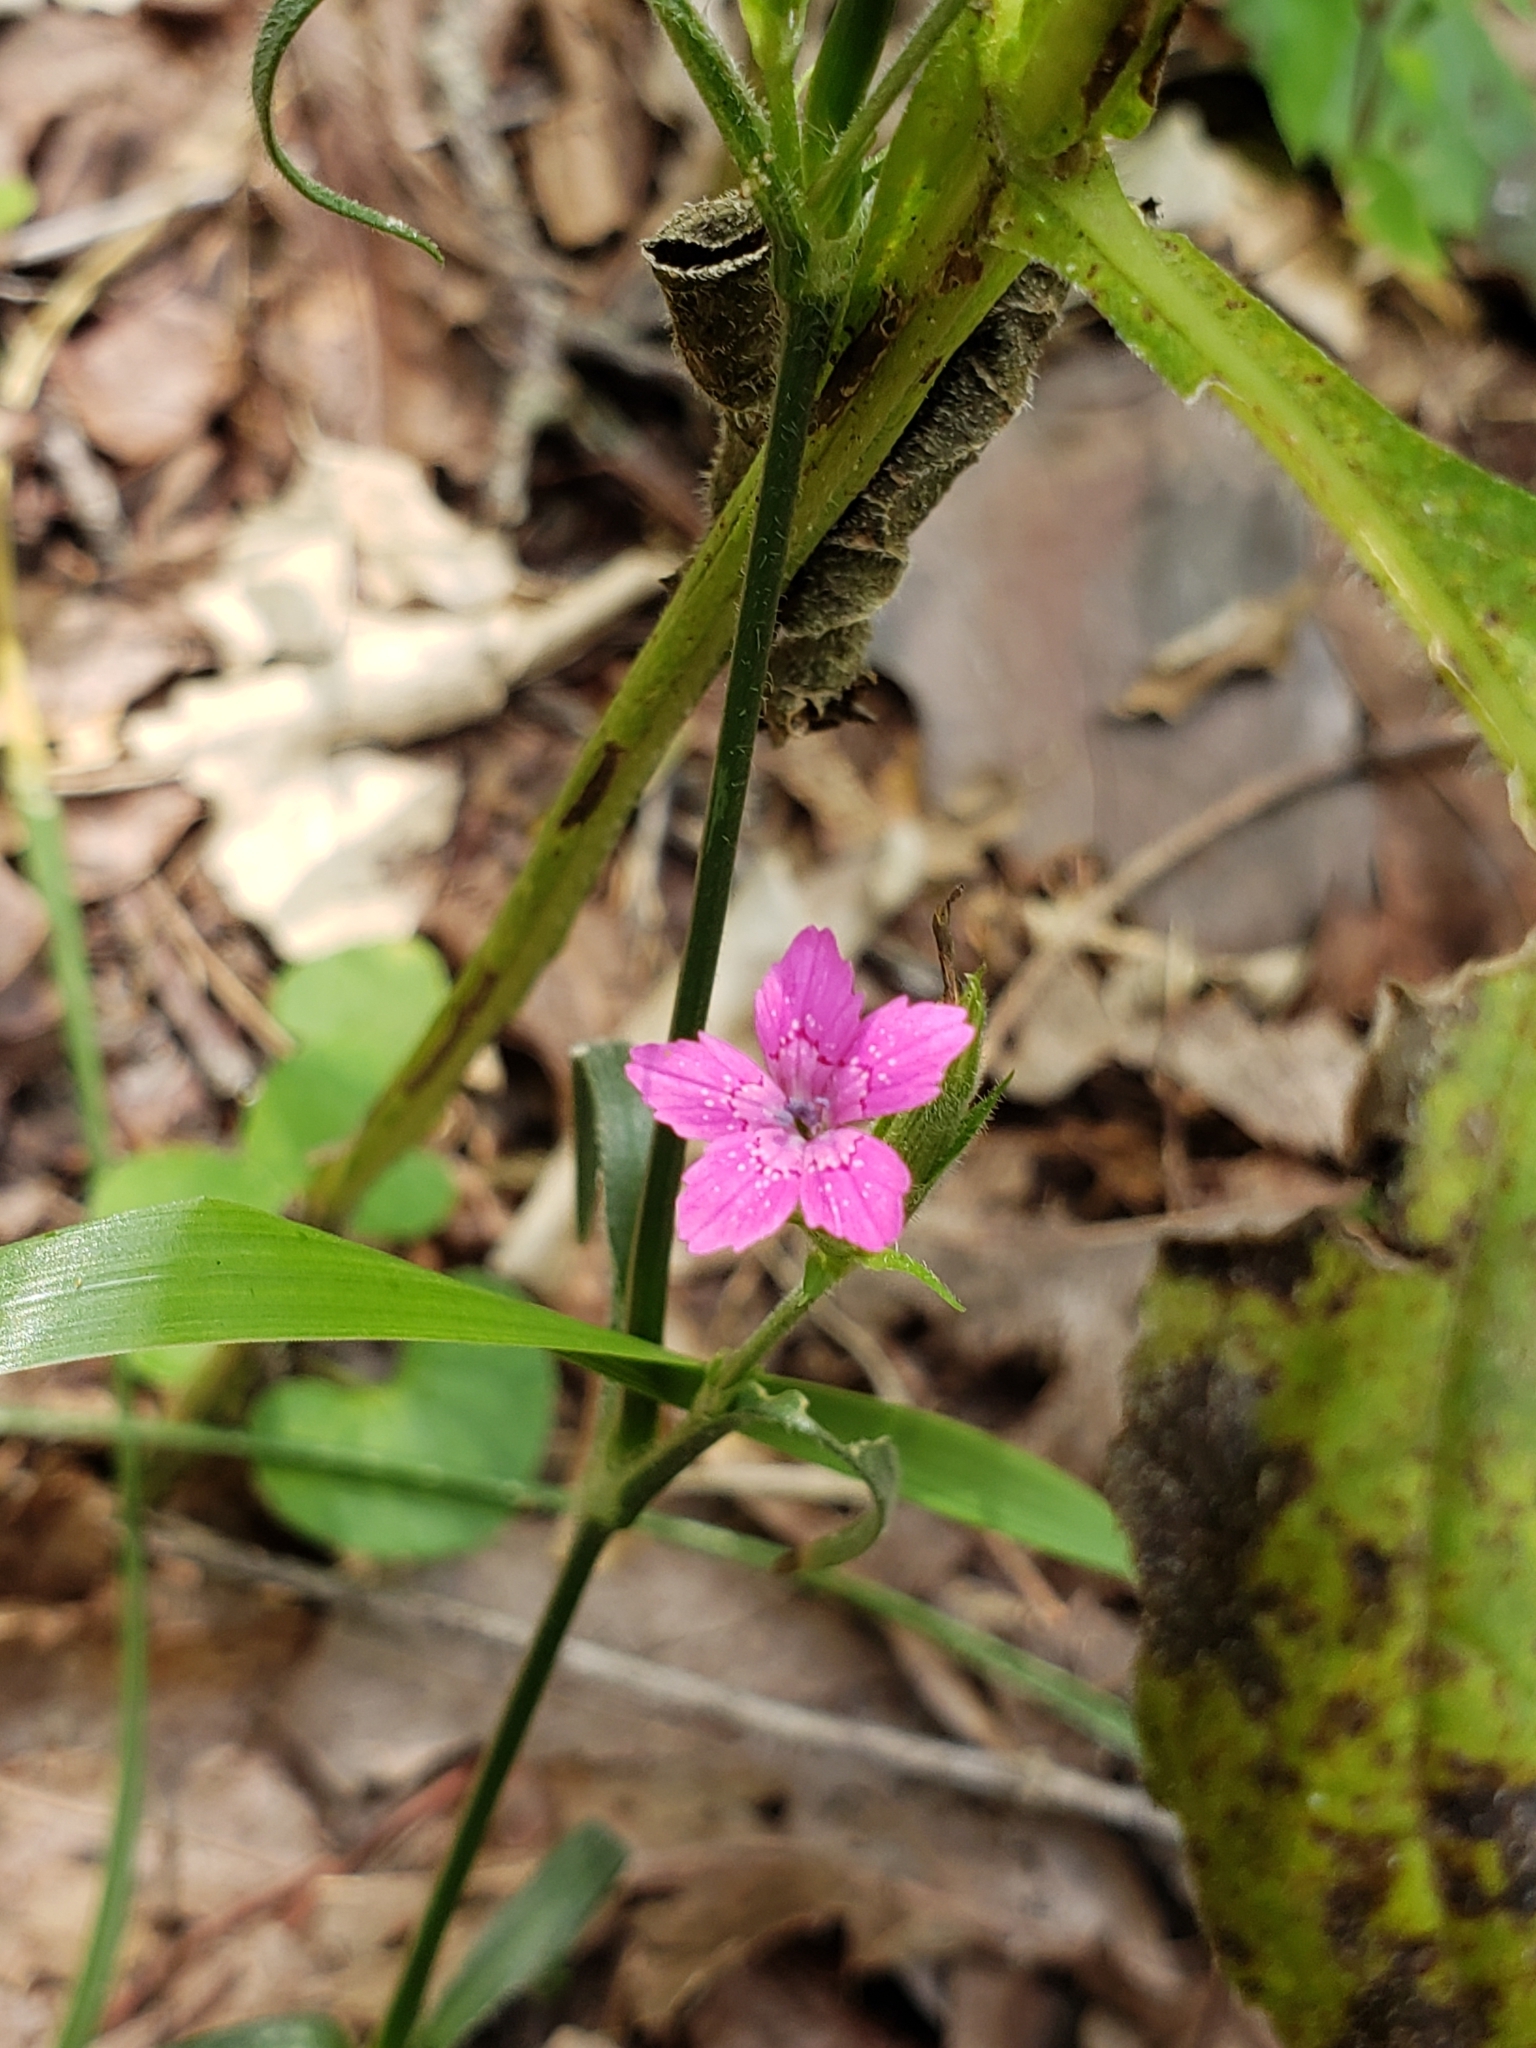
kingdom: Plantae
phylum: Tracheophyta
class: Magnoliopsida
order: Caryophyllales
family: Caryophyllaceae
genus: Dianthus
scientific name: Dianthus armeria
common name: Deptford pink
